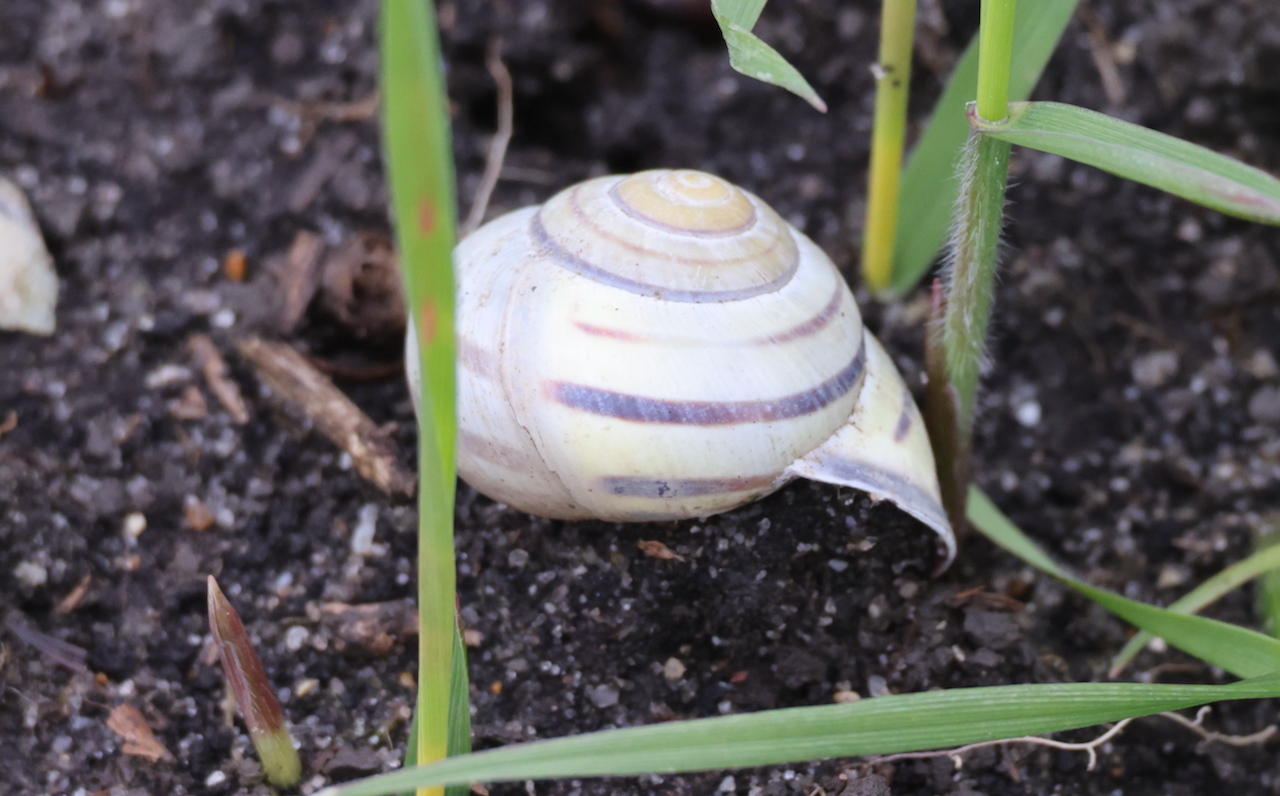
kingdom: Animalia
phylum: Mollusca
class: Gastropoda
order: Stylommatophora
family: Helicidae
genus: Cepaea
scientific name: Cepaea nemoralis
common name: Grovesnail
